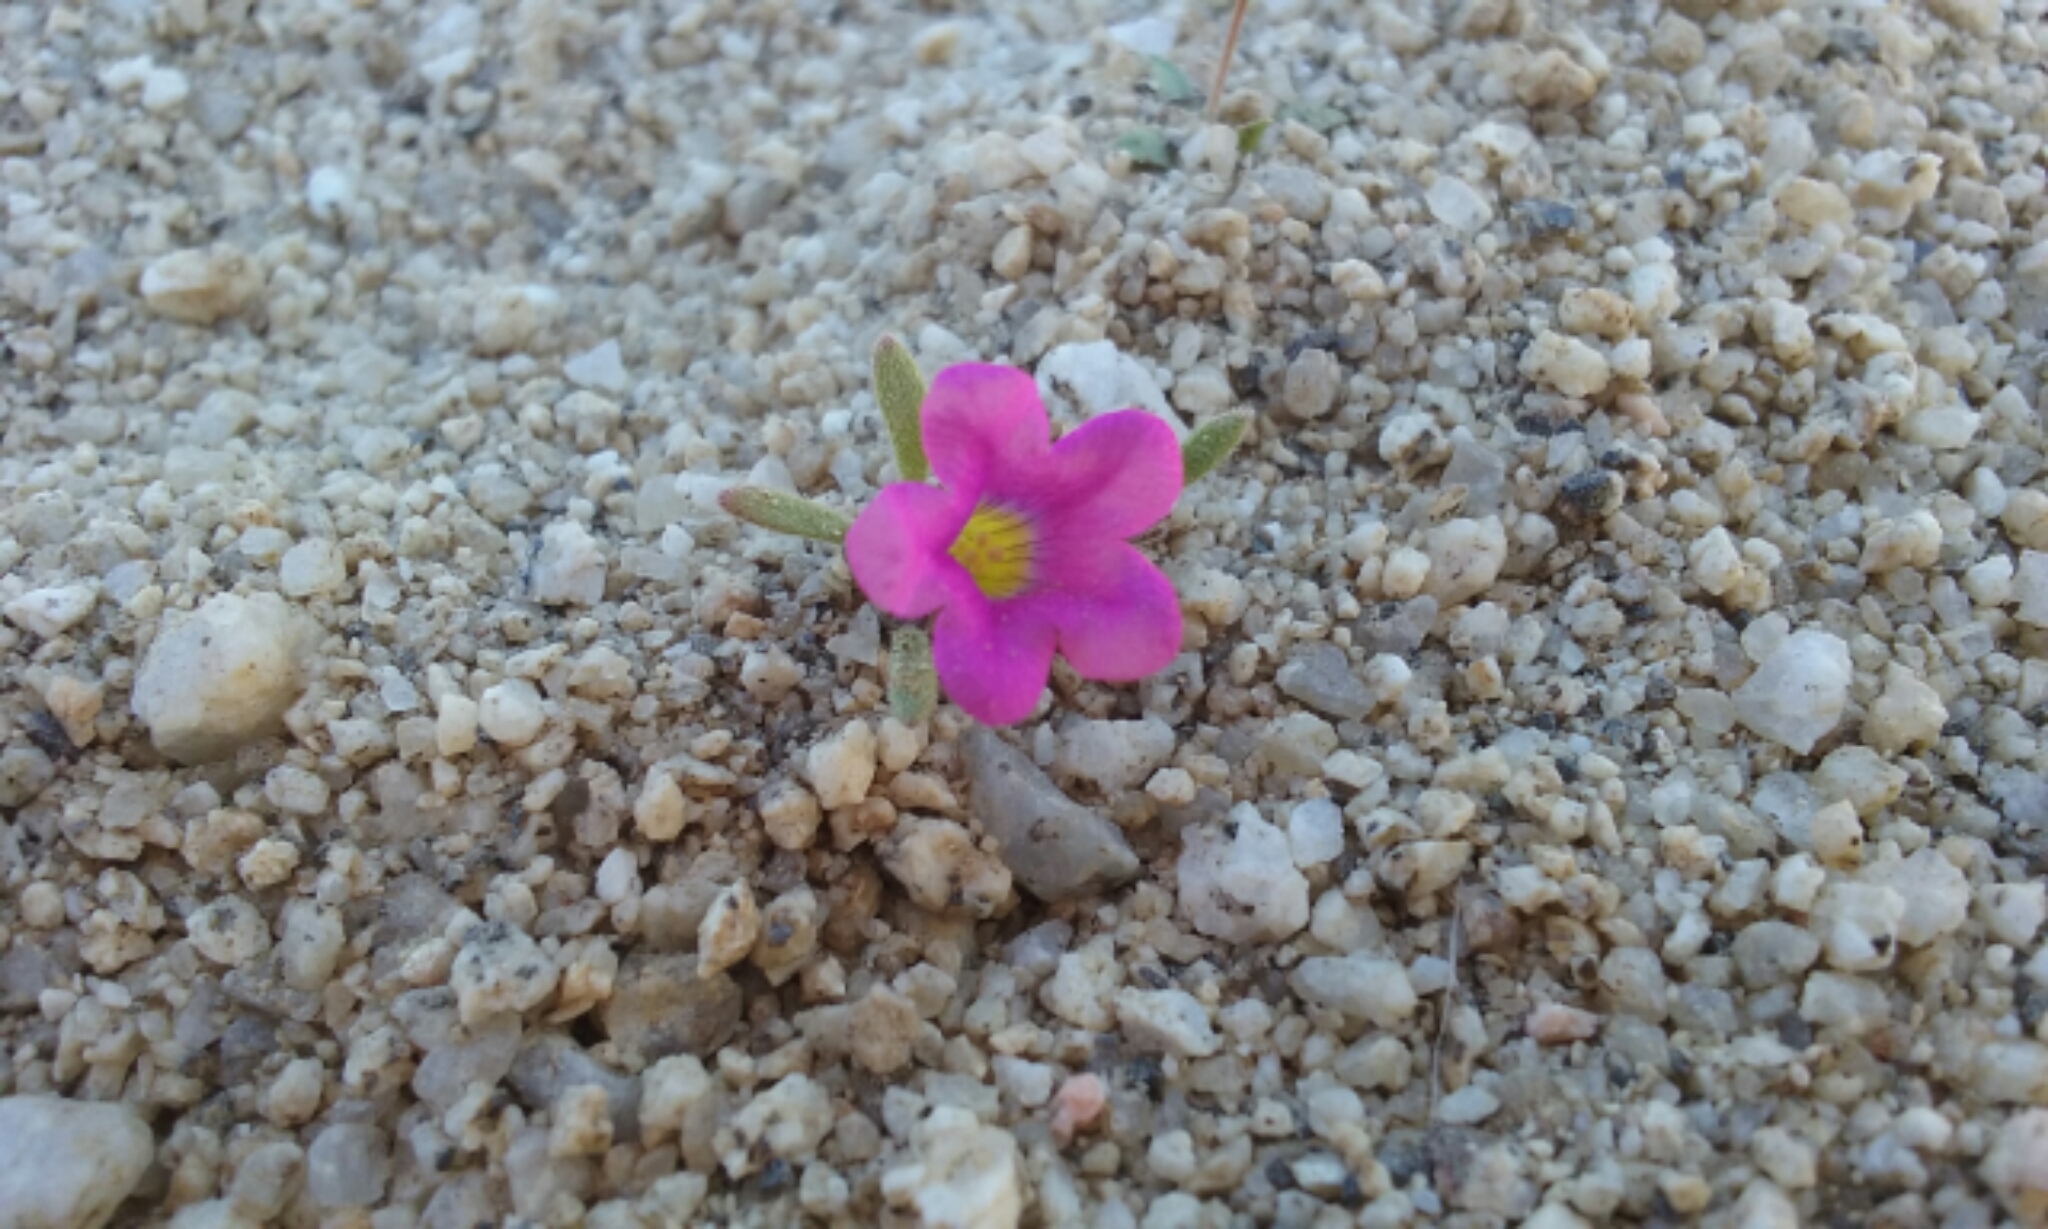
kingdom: Plantae
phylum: Tracheophyta
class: Magnoliopsida
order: Boraginales
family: Namaceae
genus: Nama
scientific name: Nama demissa
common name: Leafy nama
